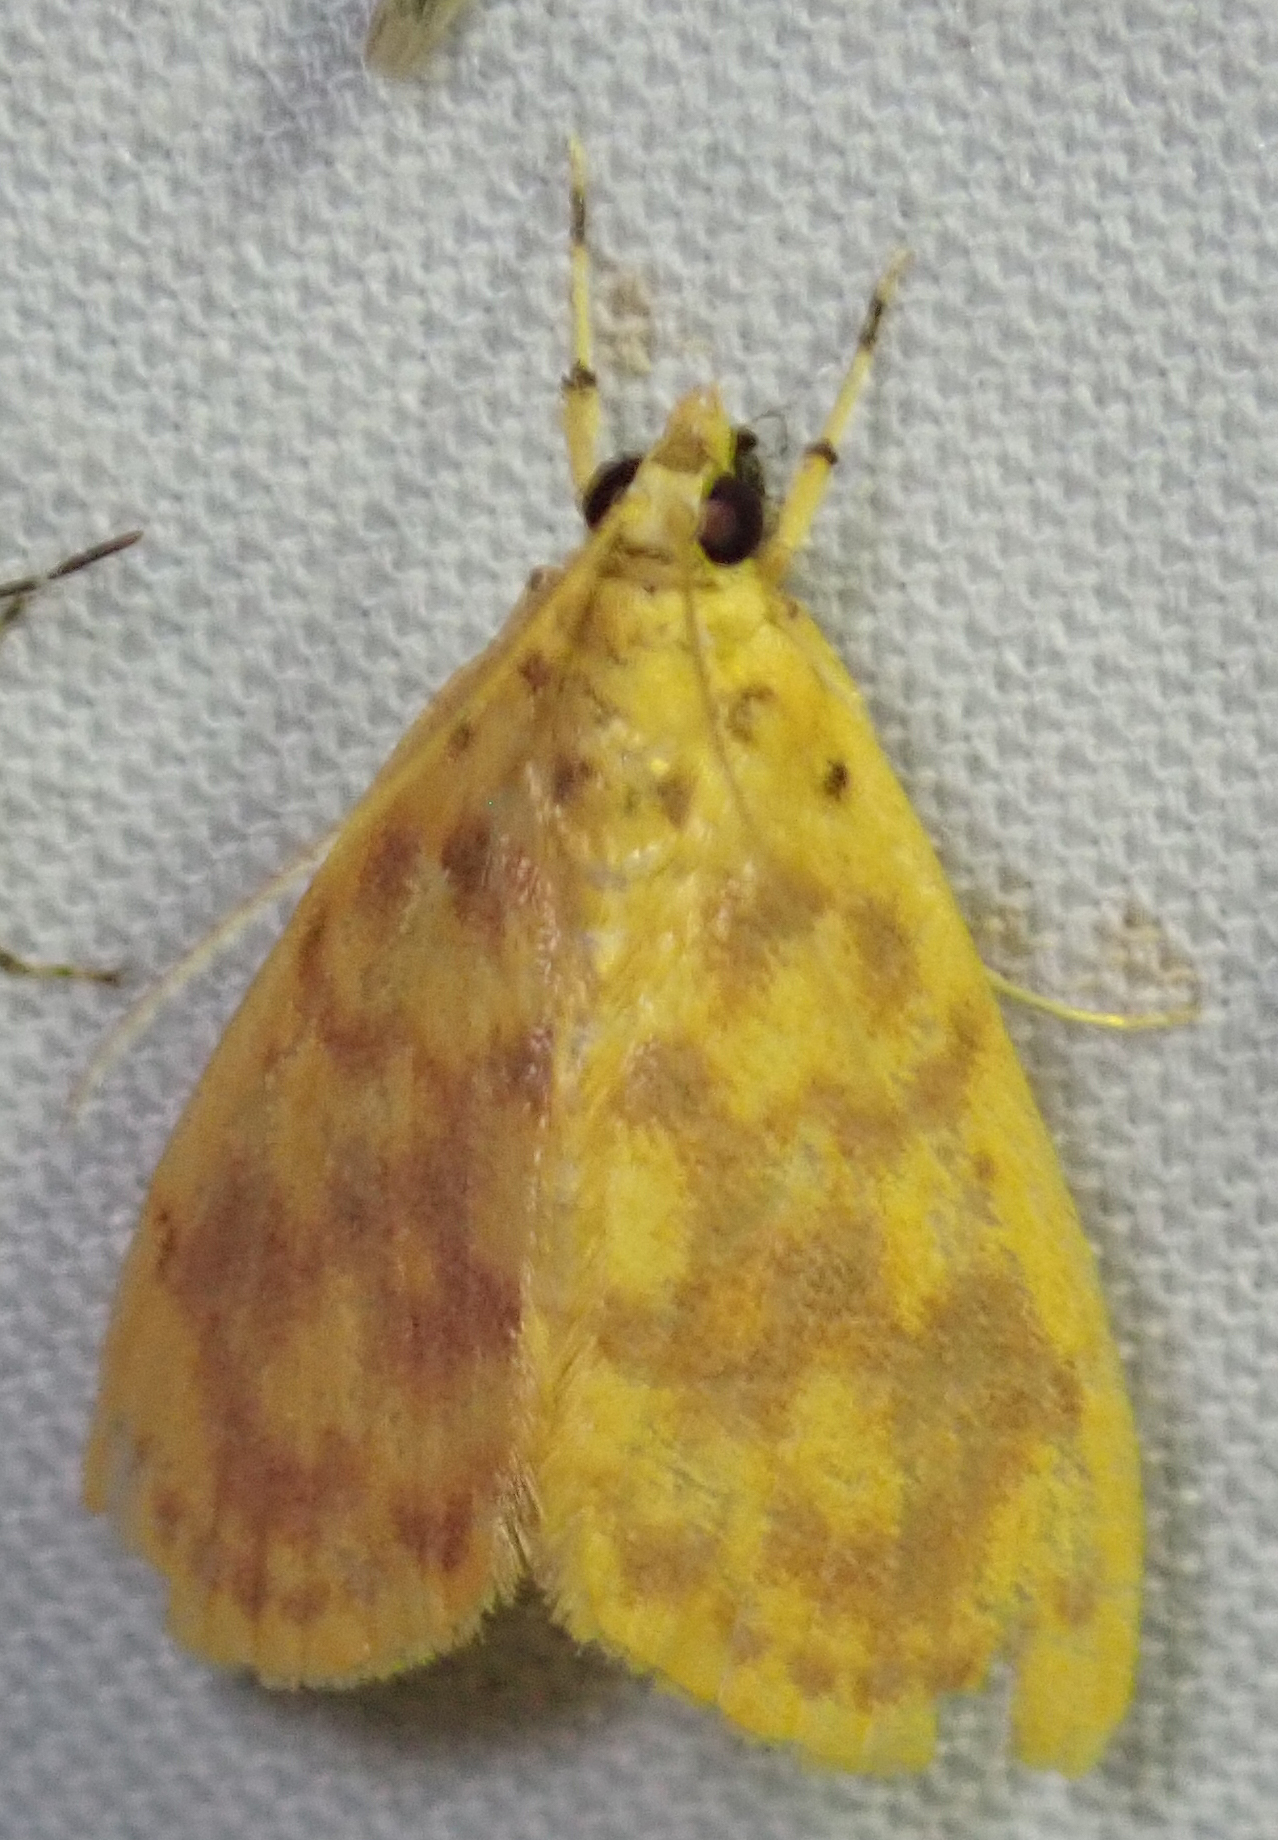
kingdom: Animalia
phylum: Arthropoda
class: Insecta
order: Lepidoptera
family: Crambidae
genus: Epipagis
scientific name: Epipagis olesialis
